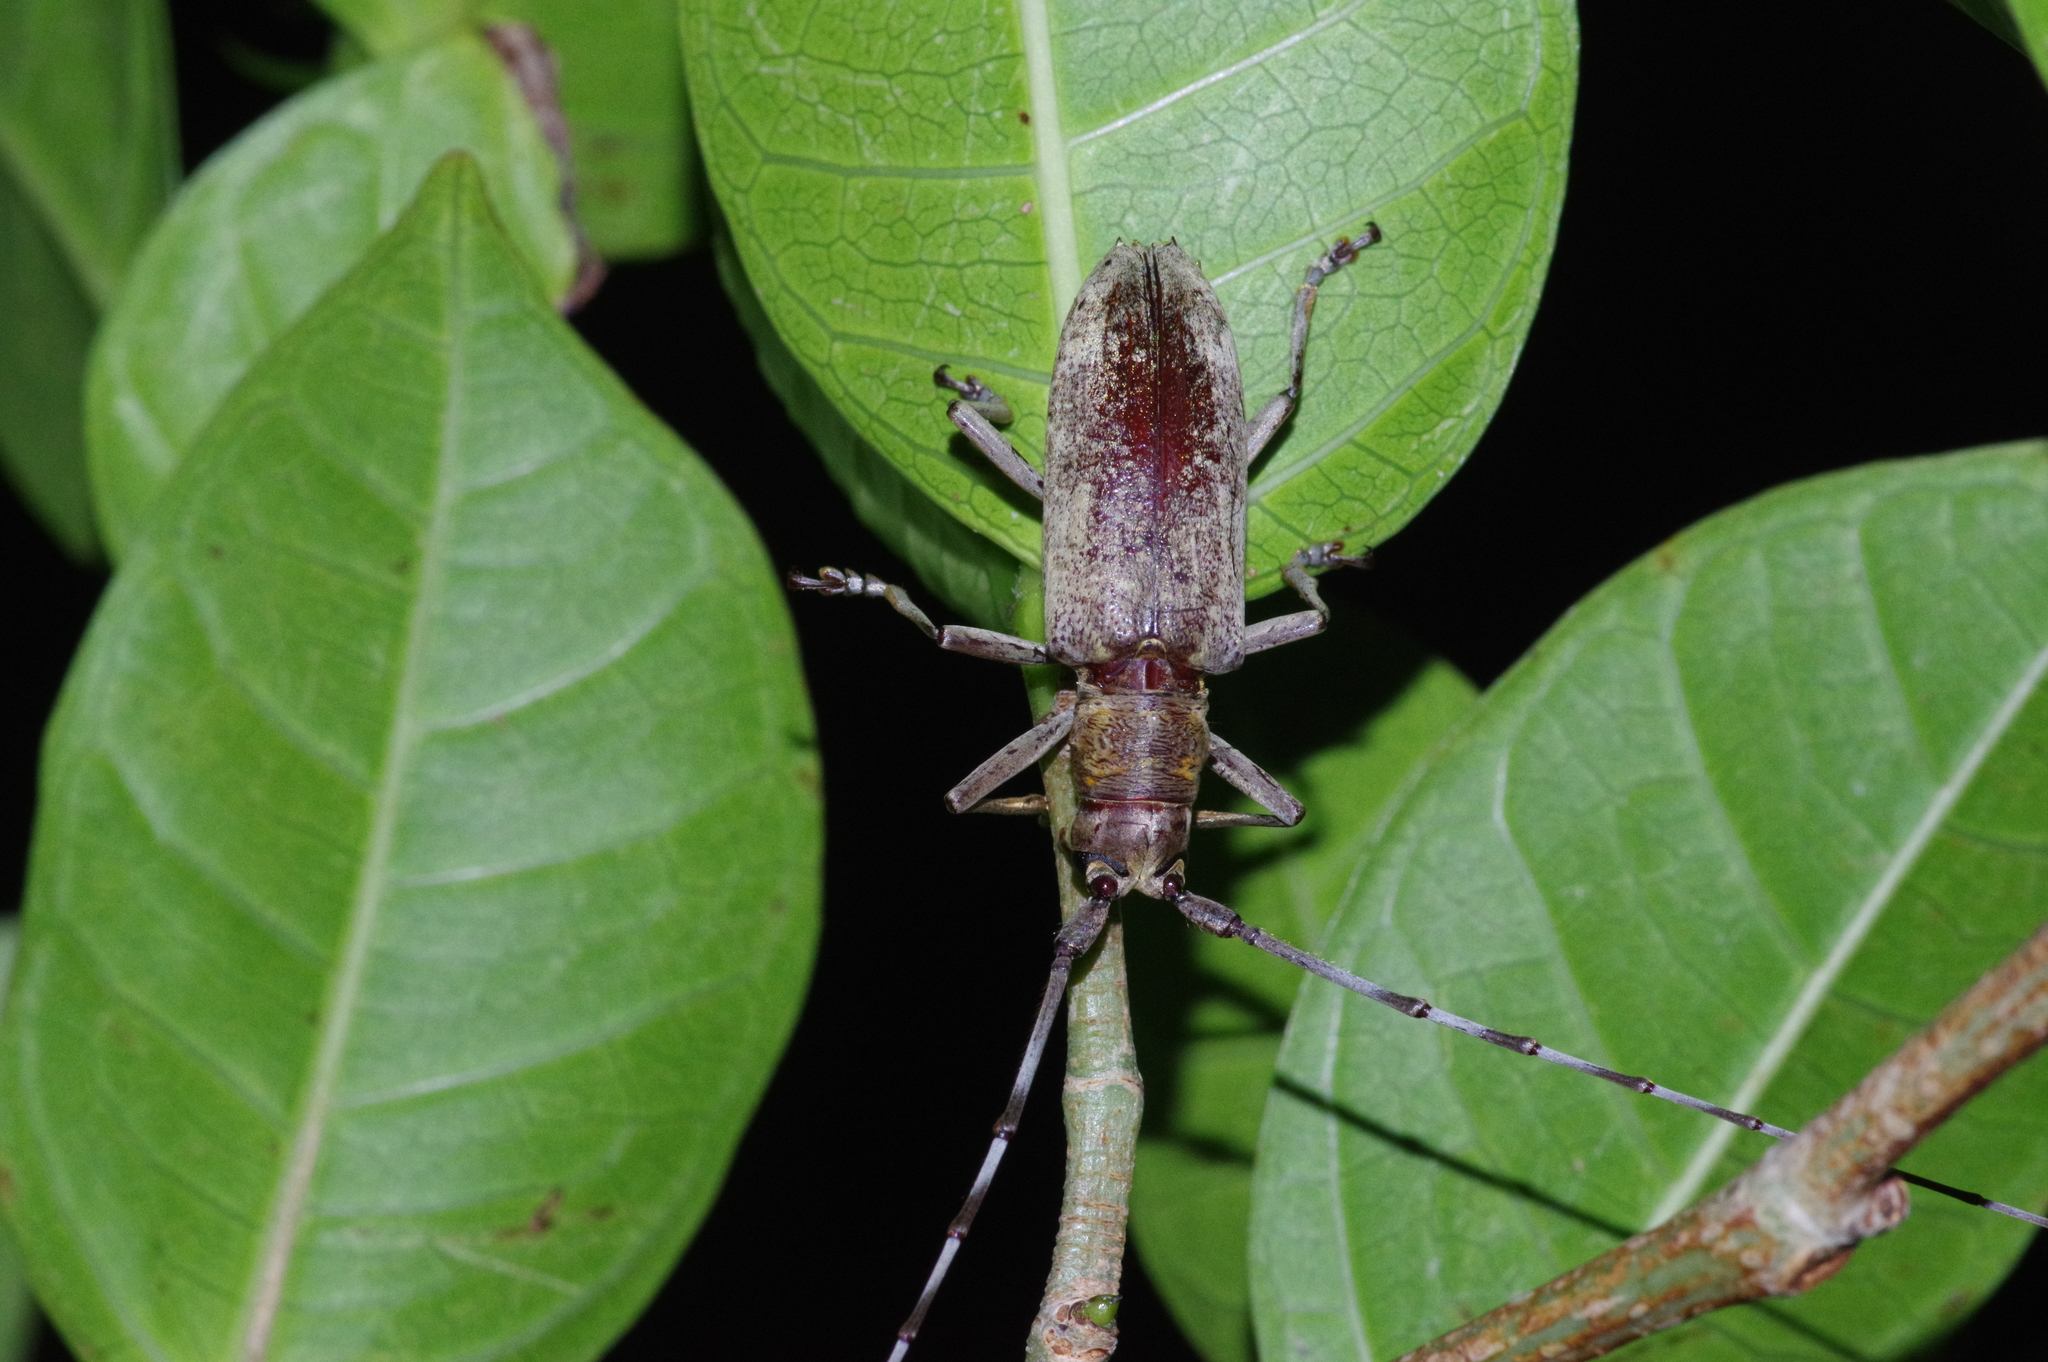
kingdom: Animalia
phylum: Arthropoda
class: Insecta
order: Coleoptera
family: Cerambycidae
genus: Psacothea
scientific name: Psacothea hilaris
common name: Yellow-spotted longicorn beetle
